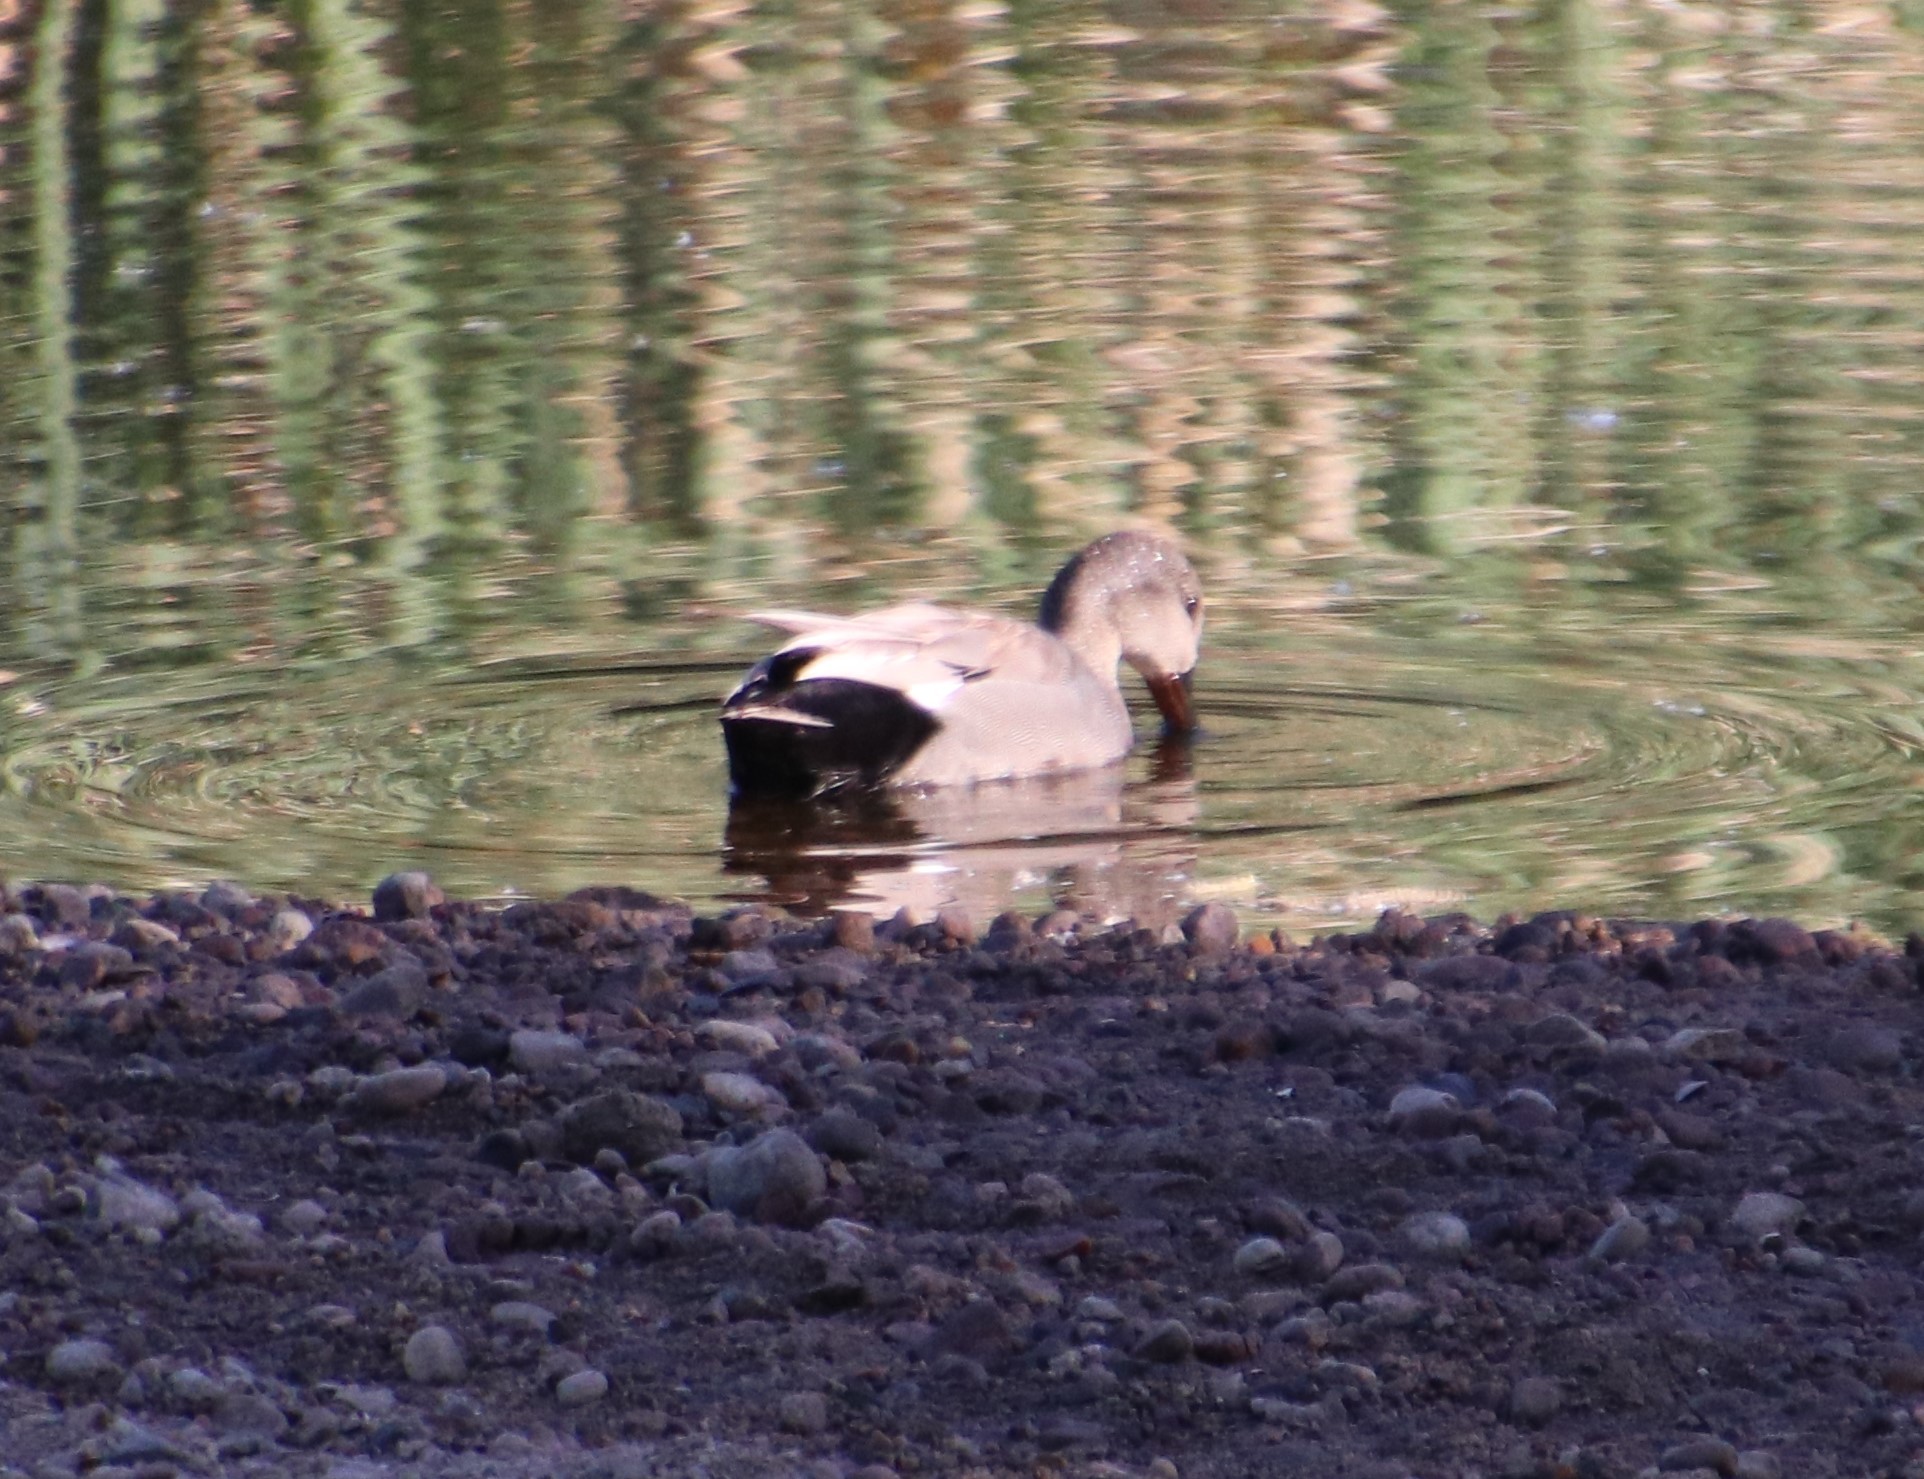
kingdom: Animalia
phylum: Chordata
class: Aves
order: Anseriformes
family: Anatidae
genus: Mareca
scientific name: Mareca strepera
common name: Gadwall
